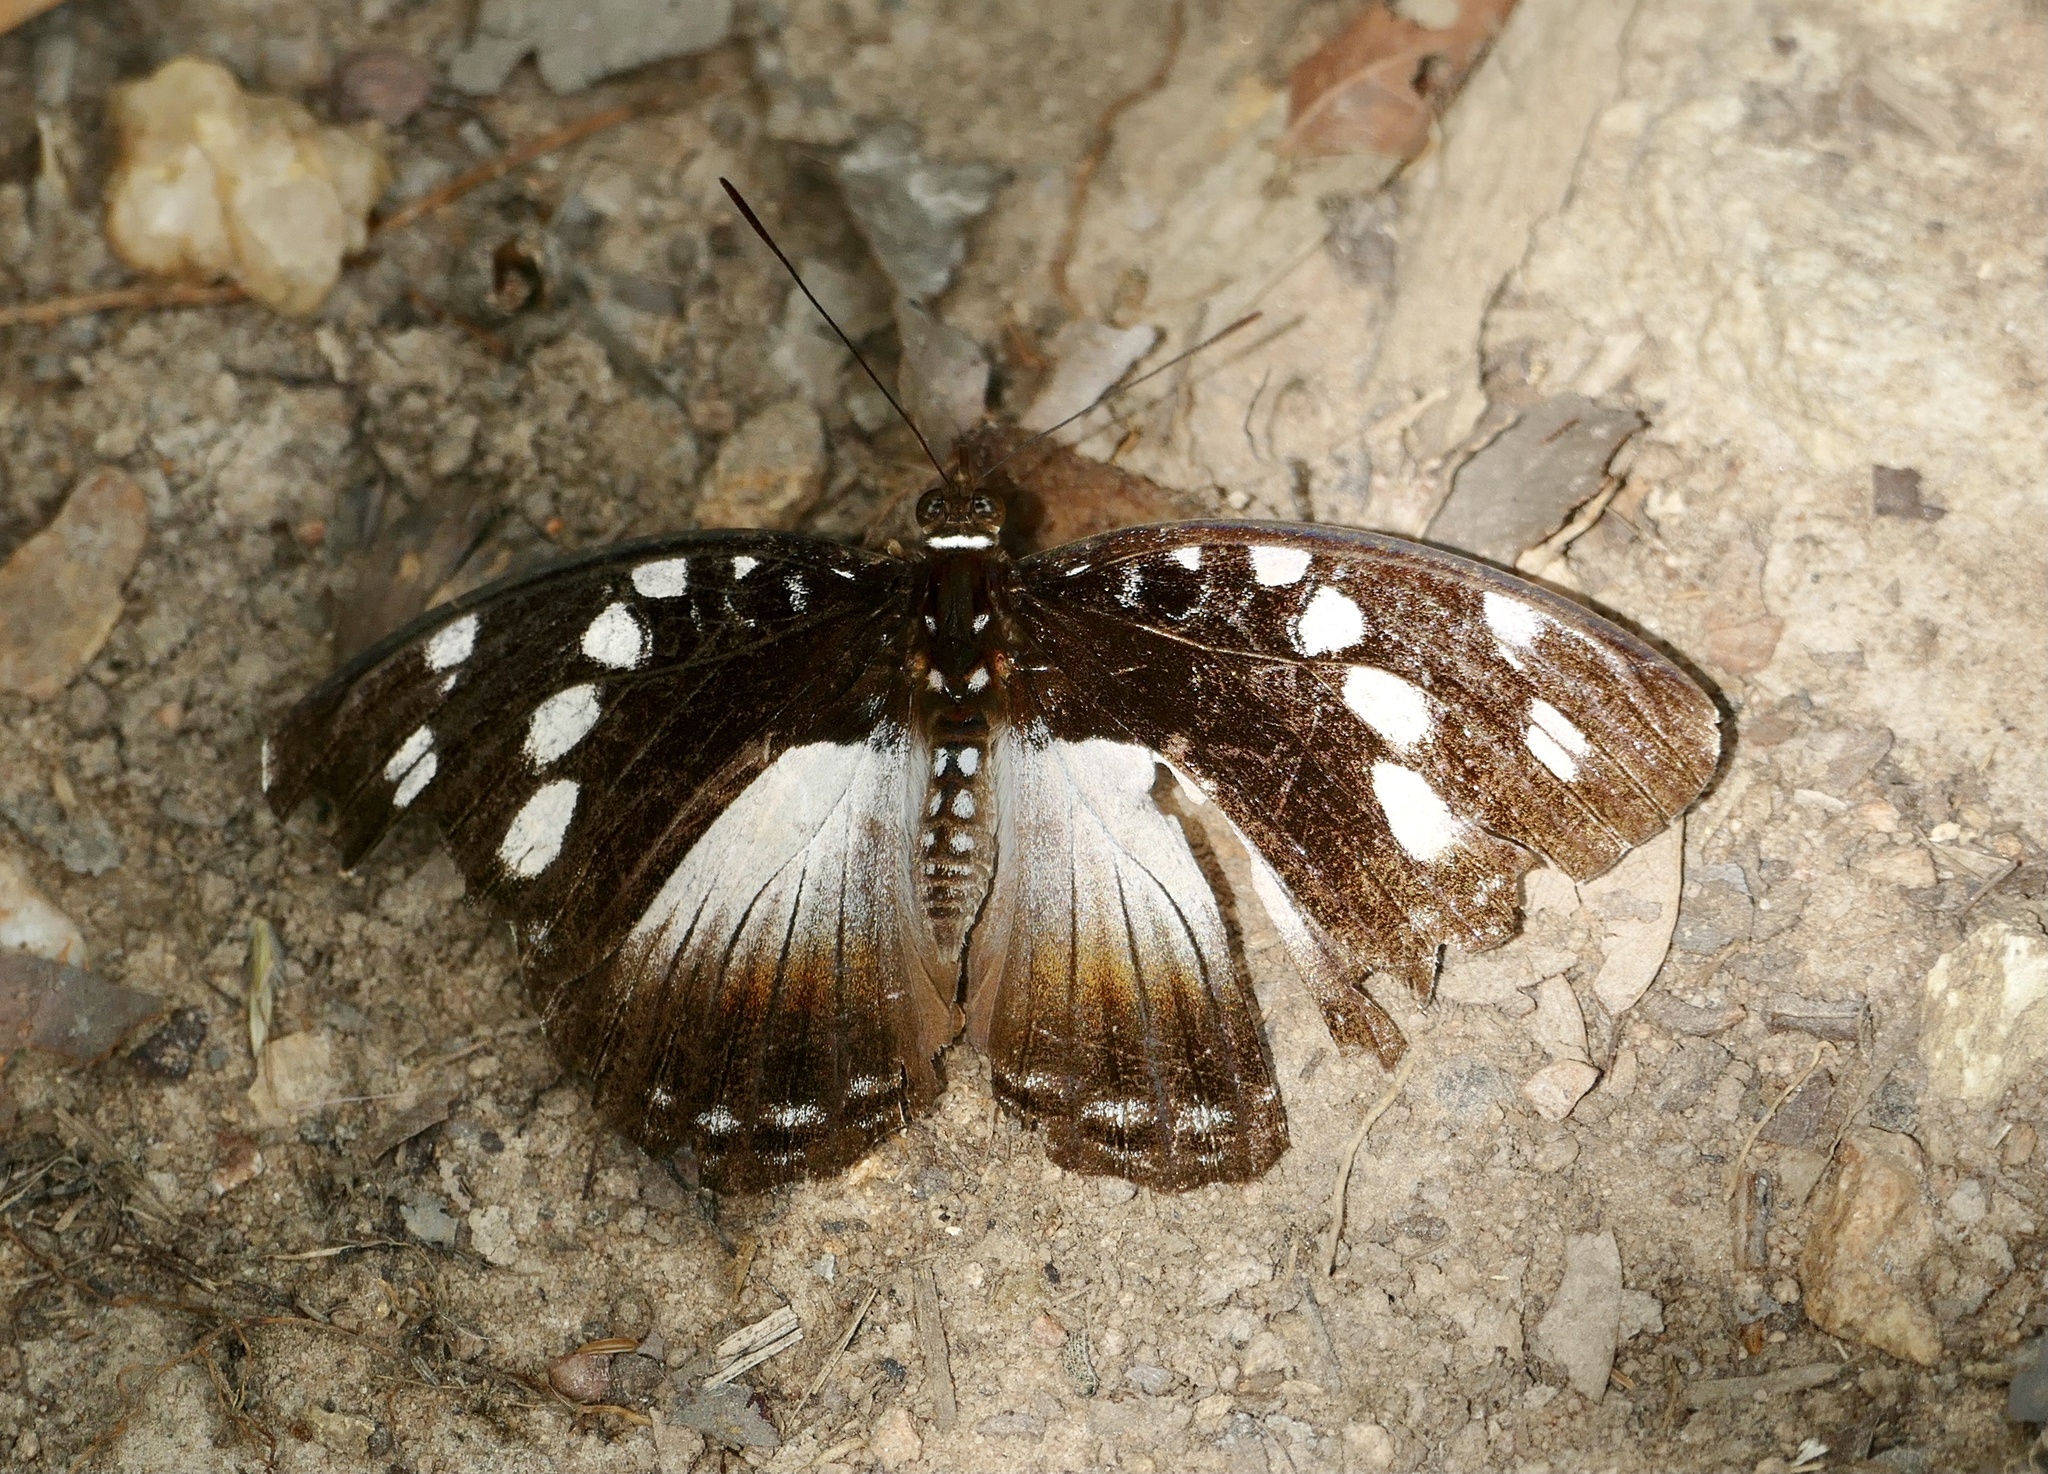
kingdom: Animalia
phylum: Arthropoda
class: Insecta
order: Lepidoptera
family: Nymphalidae
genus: Aterica
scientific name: Aterica galene
